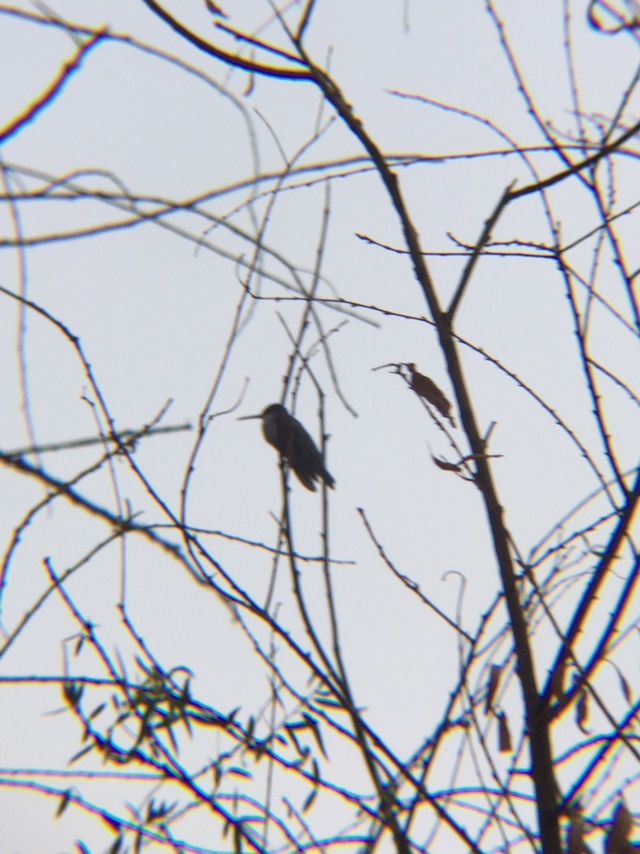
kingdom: Animalia
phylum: Chordata
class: Aves
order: Apodiformes
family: Trochilidae
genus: Leucolia
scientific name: Leucolia violiceps
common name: Violet-crowned hummingbird
